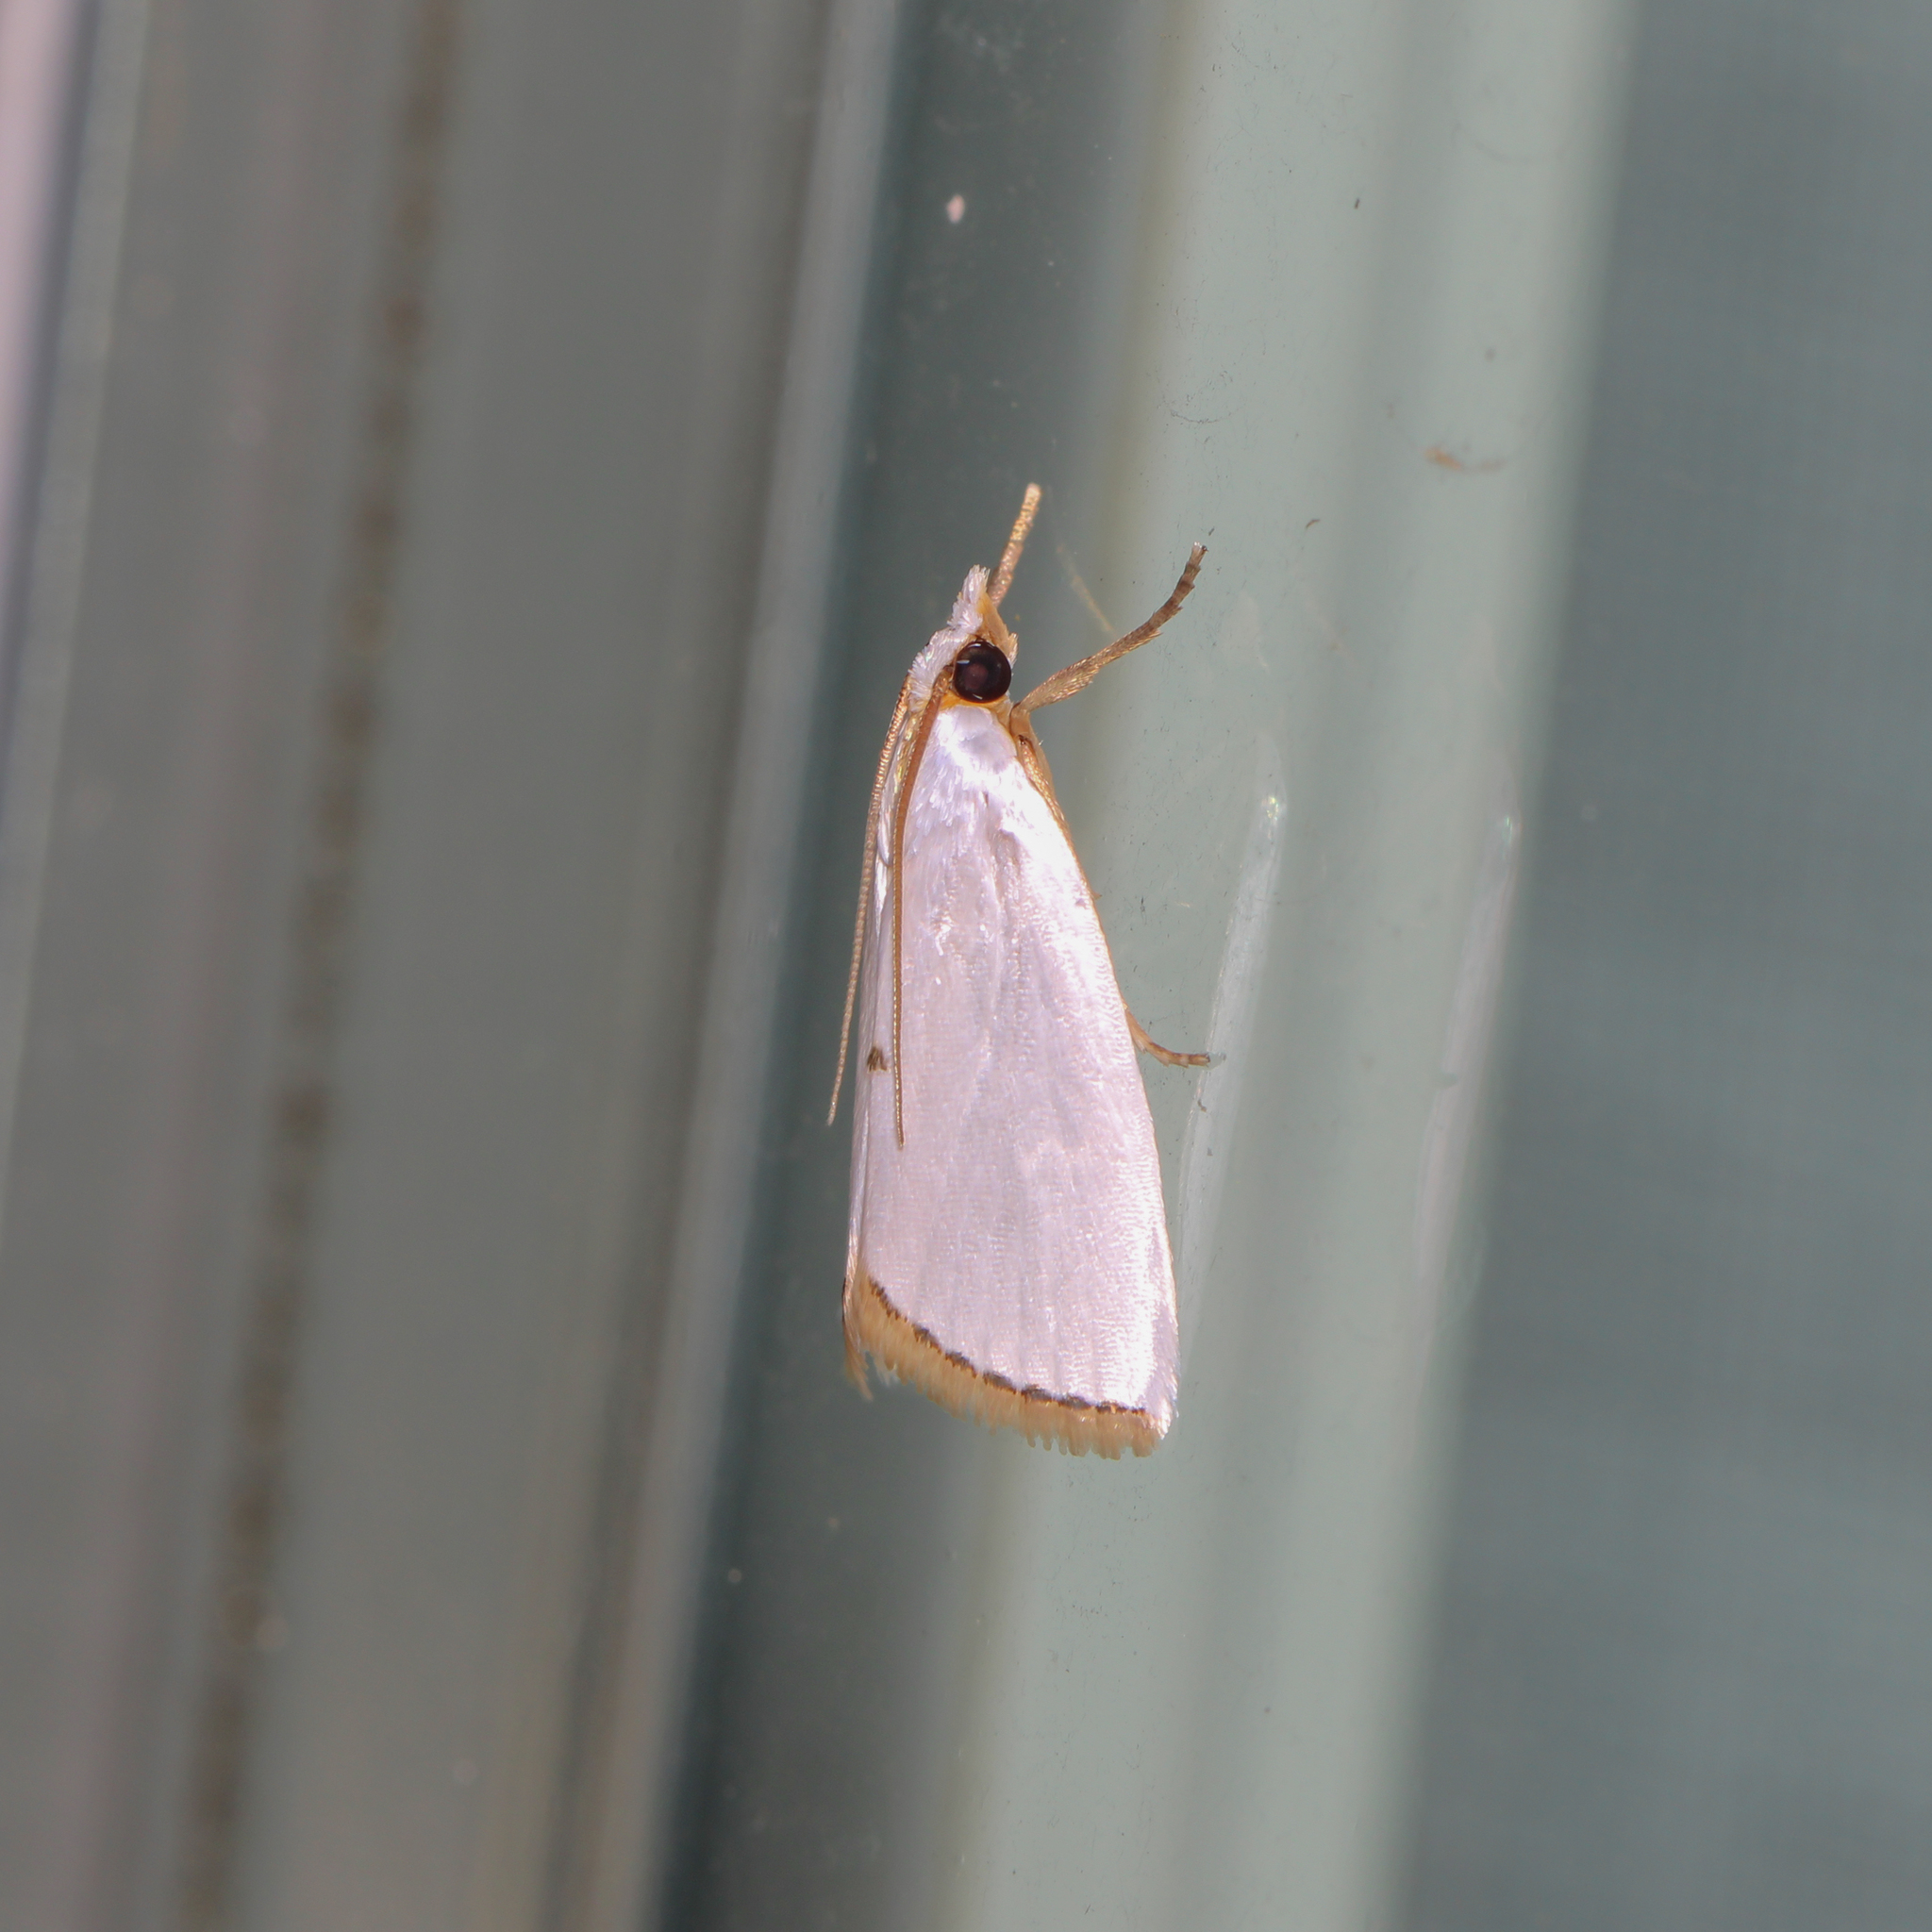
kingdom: Animalia
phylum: Arthropoda
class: Insecta
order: Lepidoptera
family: Crambidae
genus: Argyria
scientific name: Argyria nivalis
